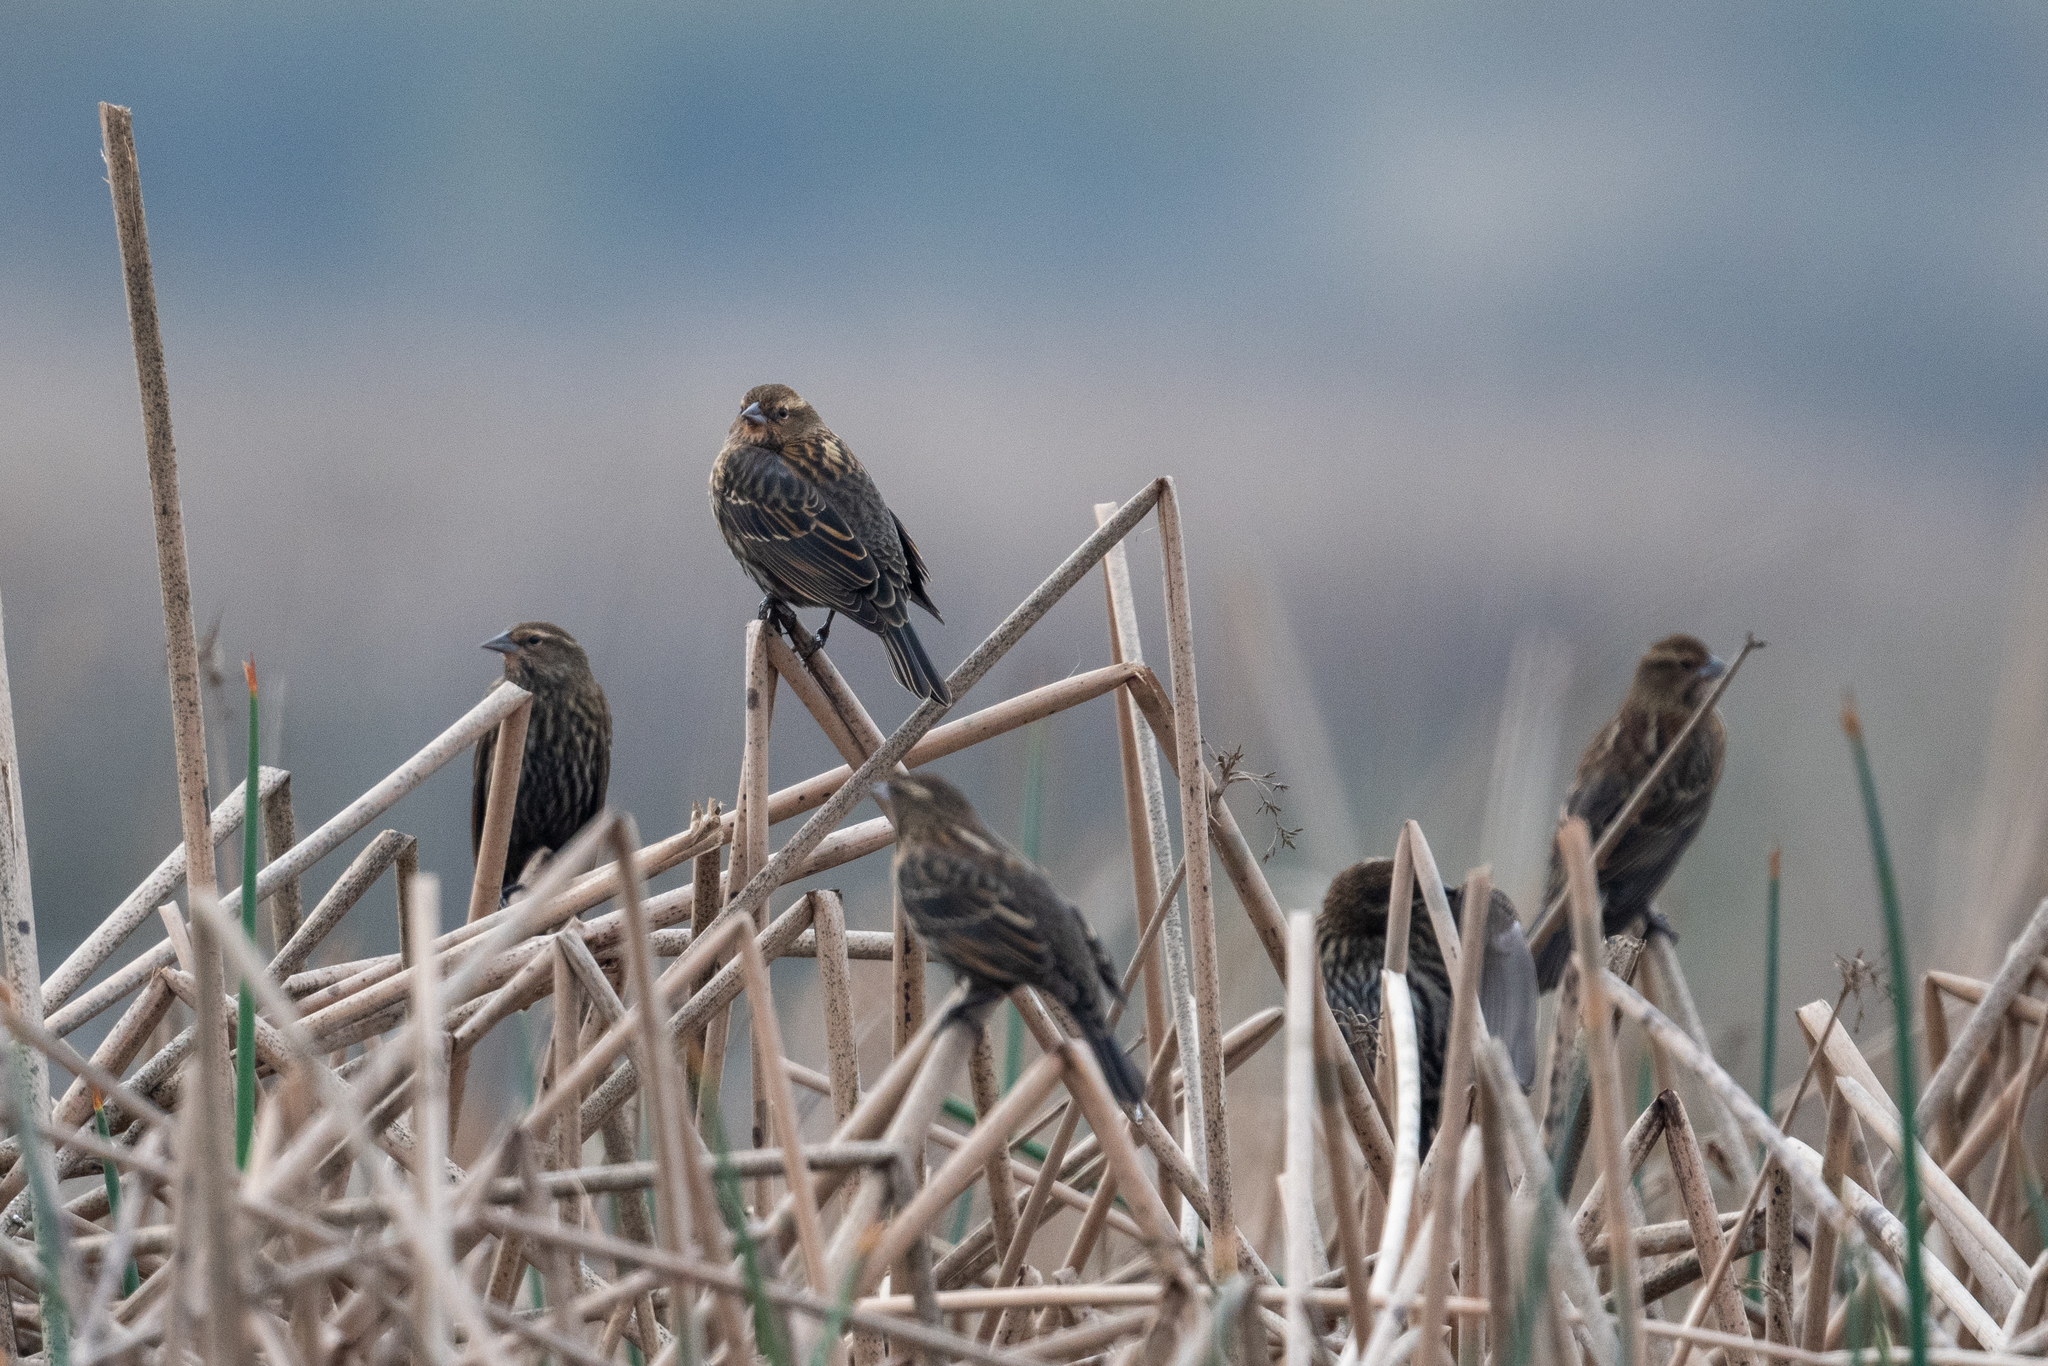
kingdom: Animalia
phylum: Chordata
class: Aves
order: Passeriformes
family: Icteridae
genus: Agelaius
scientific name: Agelaius phoeniceus
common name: Red-winged blackbird
